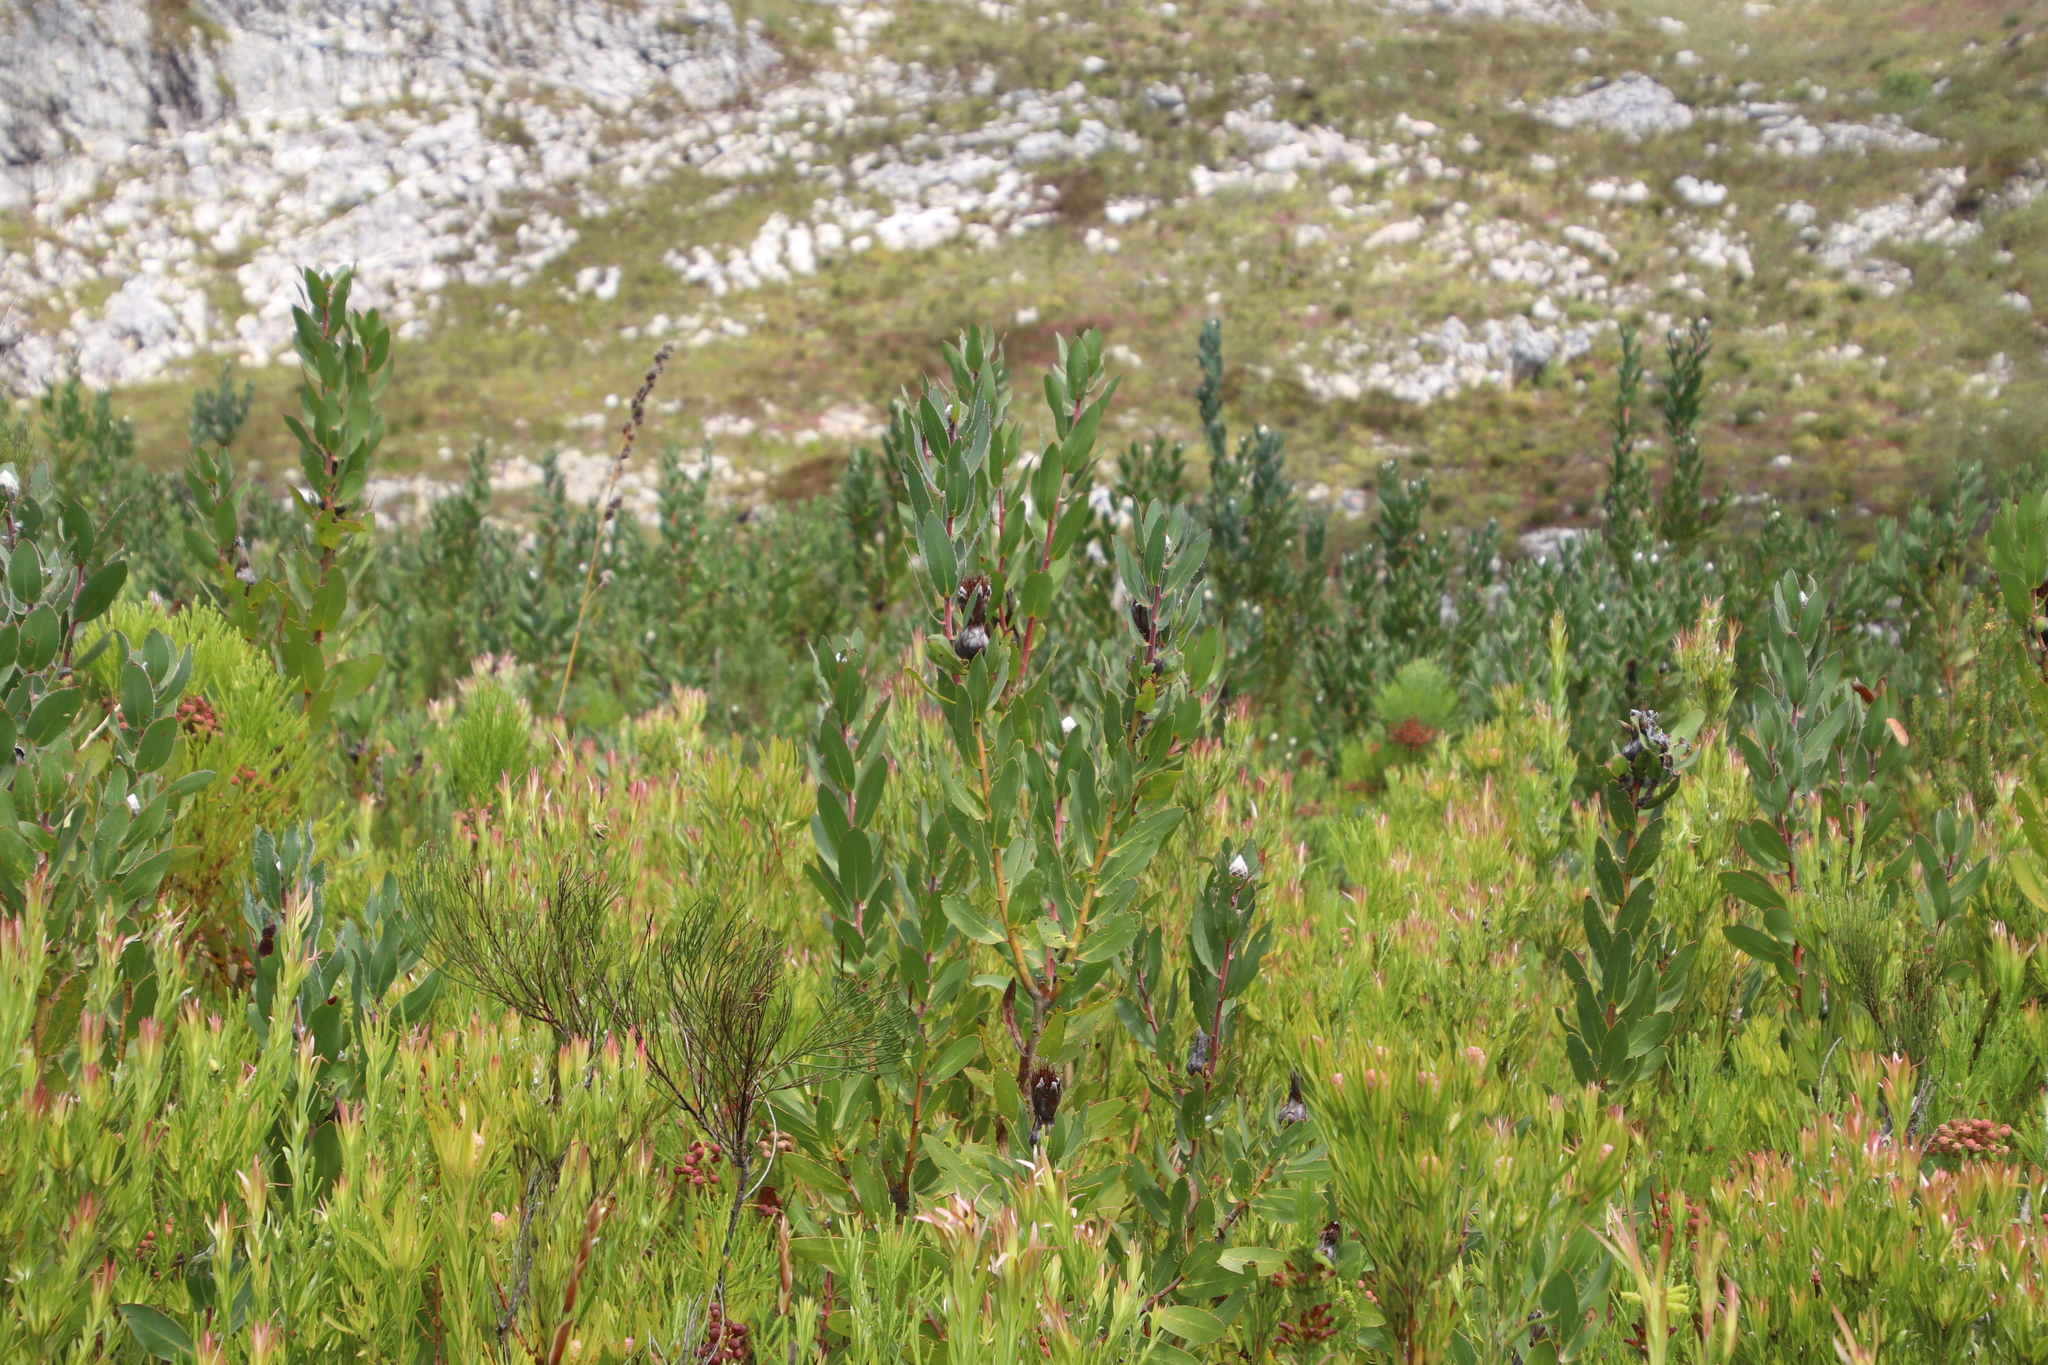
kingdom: Plantae
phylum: Tracheophyta
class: Magnoliopsida
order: Proteales
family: Proteaceae
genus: Protea
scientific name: Protea mundii
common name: Forest sugarbush
